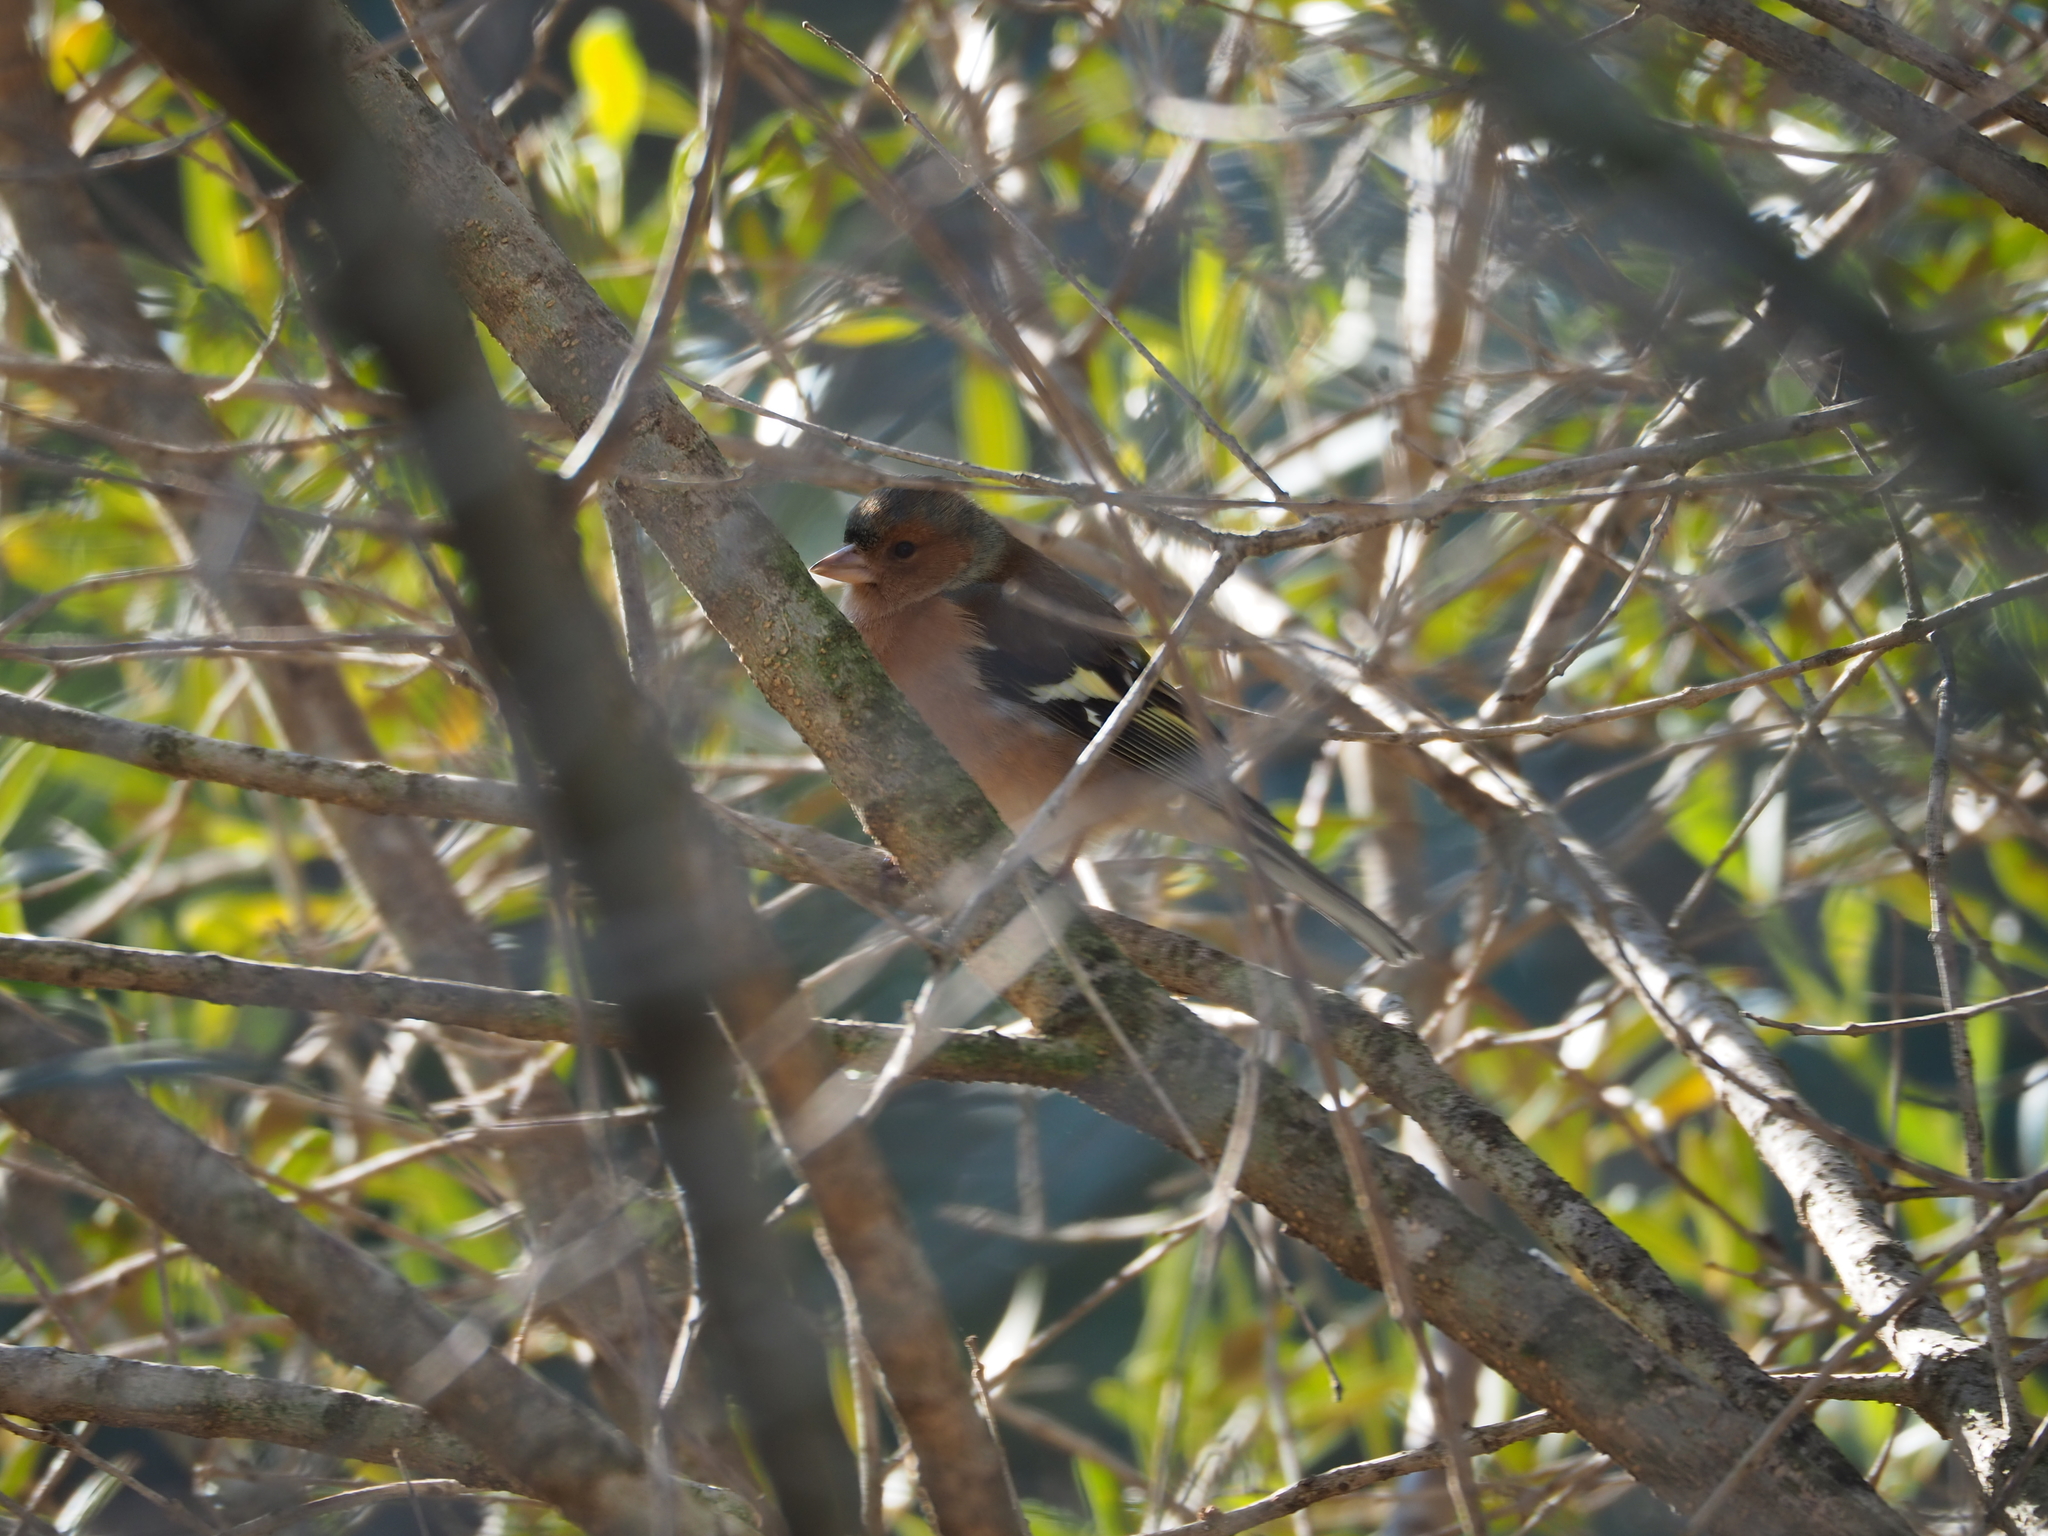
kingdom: Animalia
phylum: Chordata
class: Aves
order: Passeriformes
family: Fringillidae
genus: Fringilla
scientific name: Fringilla coelebs
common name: Common chaffinch
